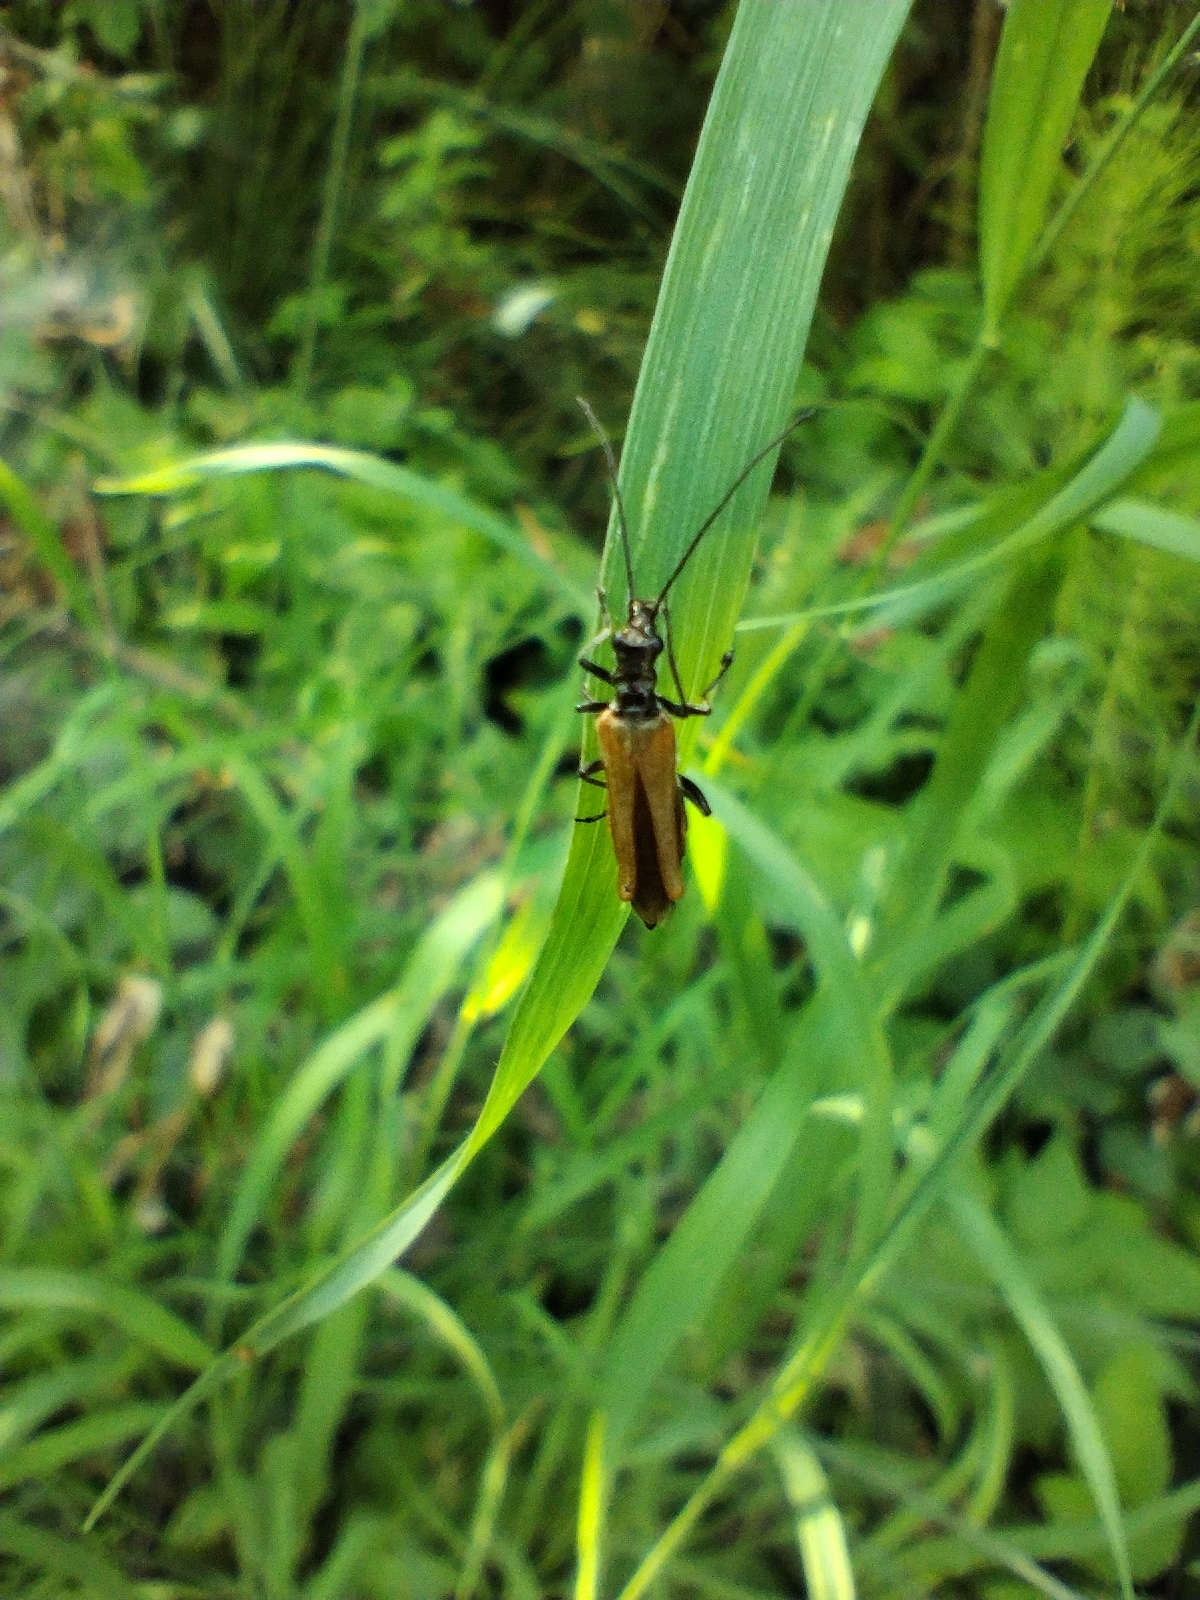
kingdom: Animalia
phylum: Arthropoda
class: Insecta
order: Coleoptera
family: Oedemeridae
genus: Oedemera
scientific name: Oedemera femorata
